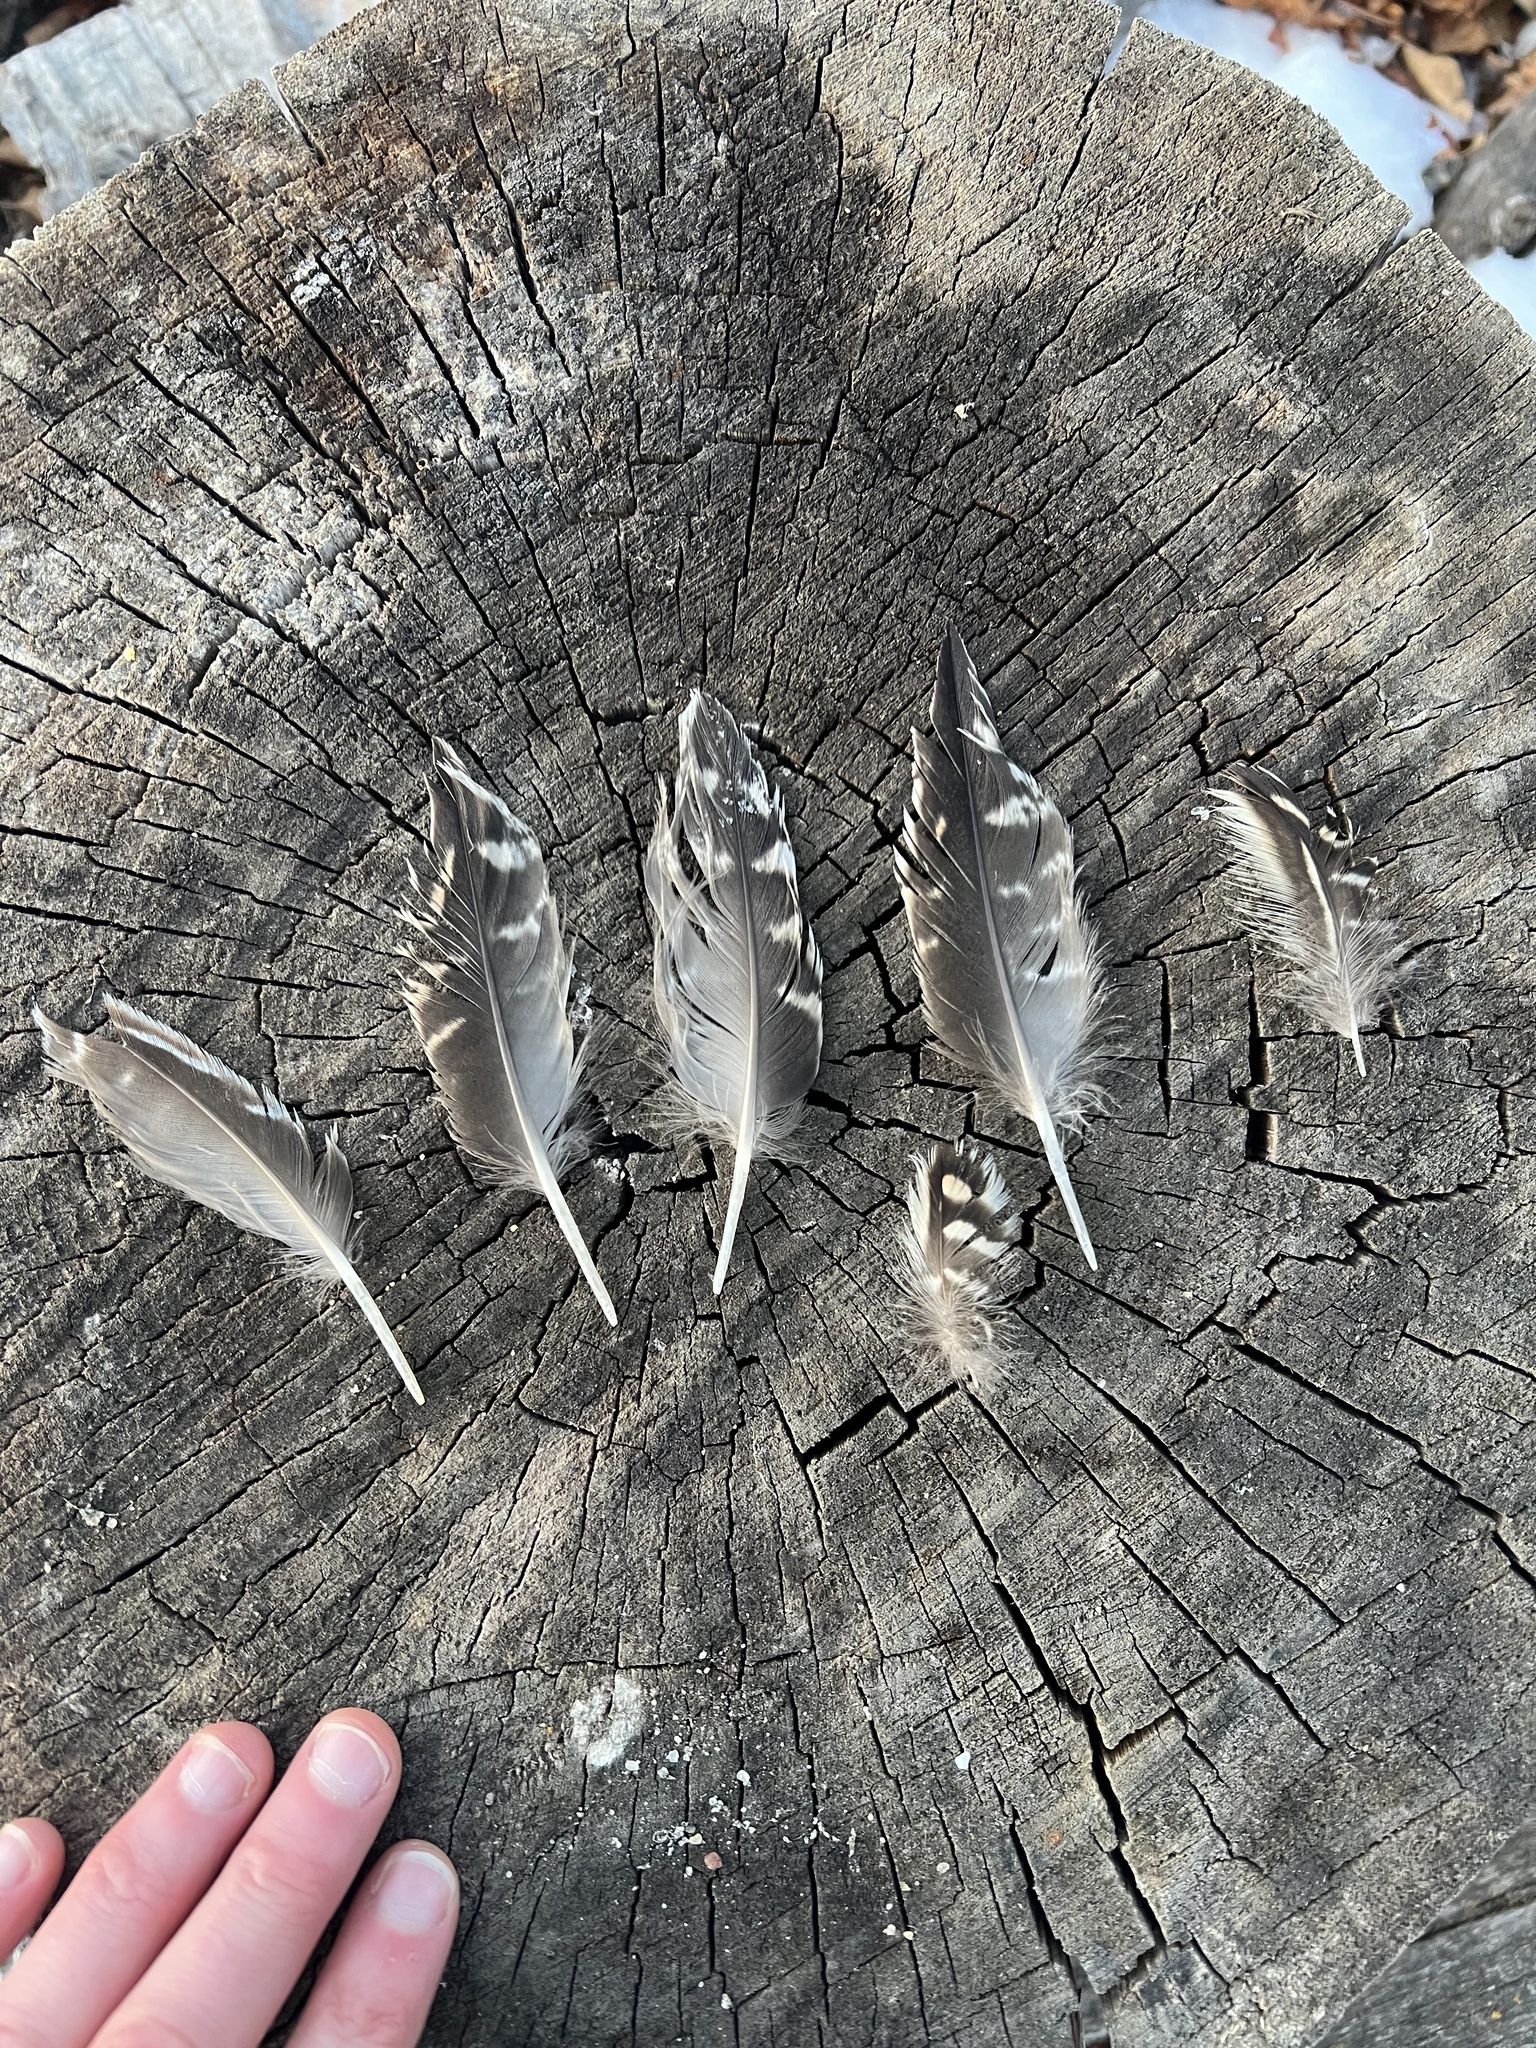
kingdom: Animalia
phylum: Chordata
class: Aves
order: Anseriformes
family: Anatidae
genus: Anas
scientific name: Anas crecca
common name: Eurasian teal
